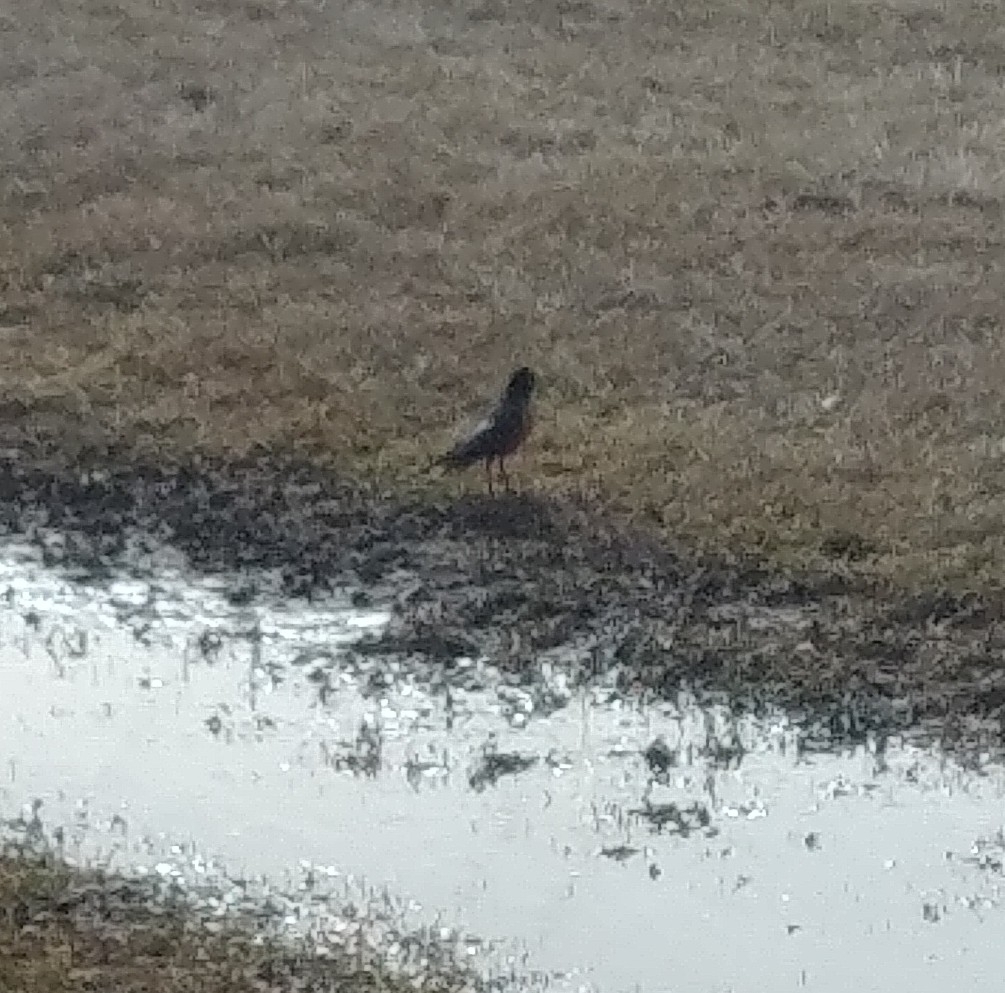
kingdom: Animalia
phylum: Chordata
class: Aves
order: Passeriformes
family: Turdidae
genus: Turdus
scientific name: Turdus migratorius
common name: American robin
